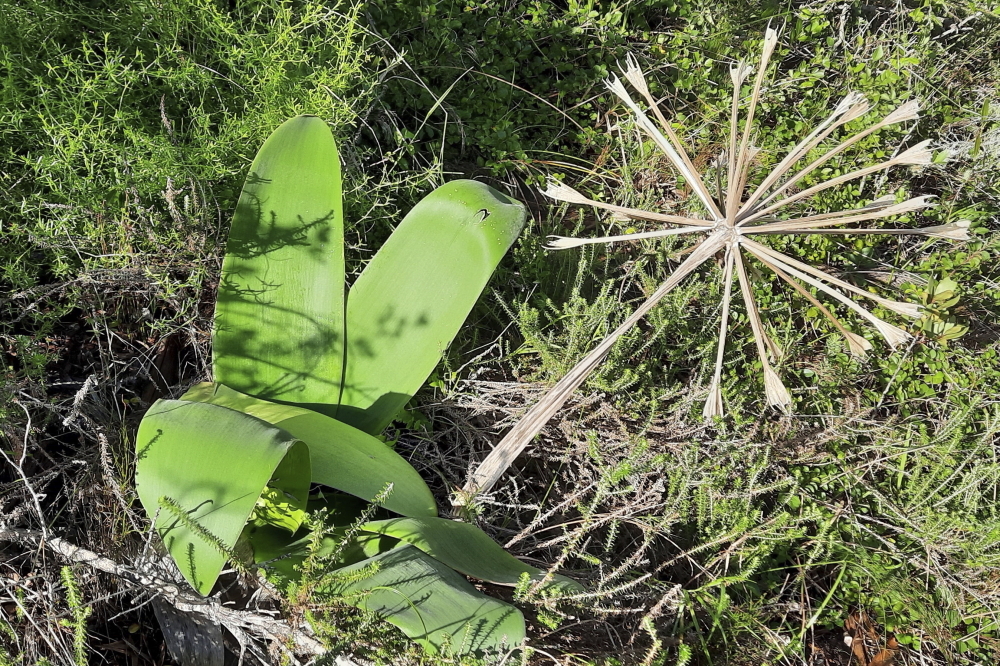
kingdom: Plantae
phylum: Tracheophyta
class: Liliopsida
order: Asparagales
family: Amaryllidaceae
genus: Brunsvigia
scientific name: Brunsvigia orientalis
